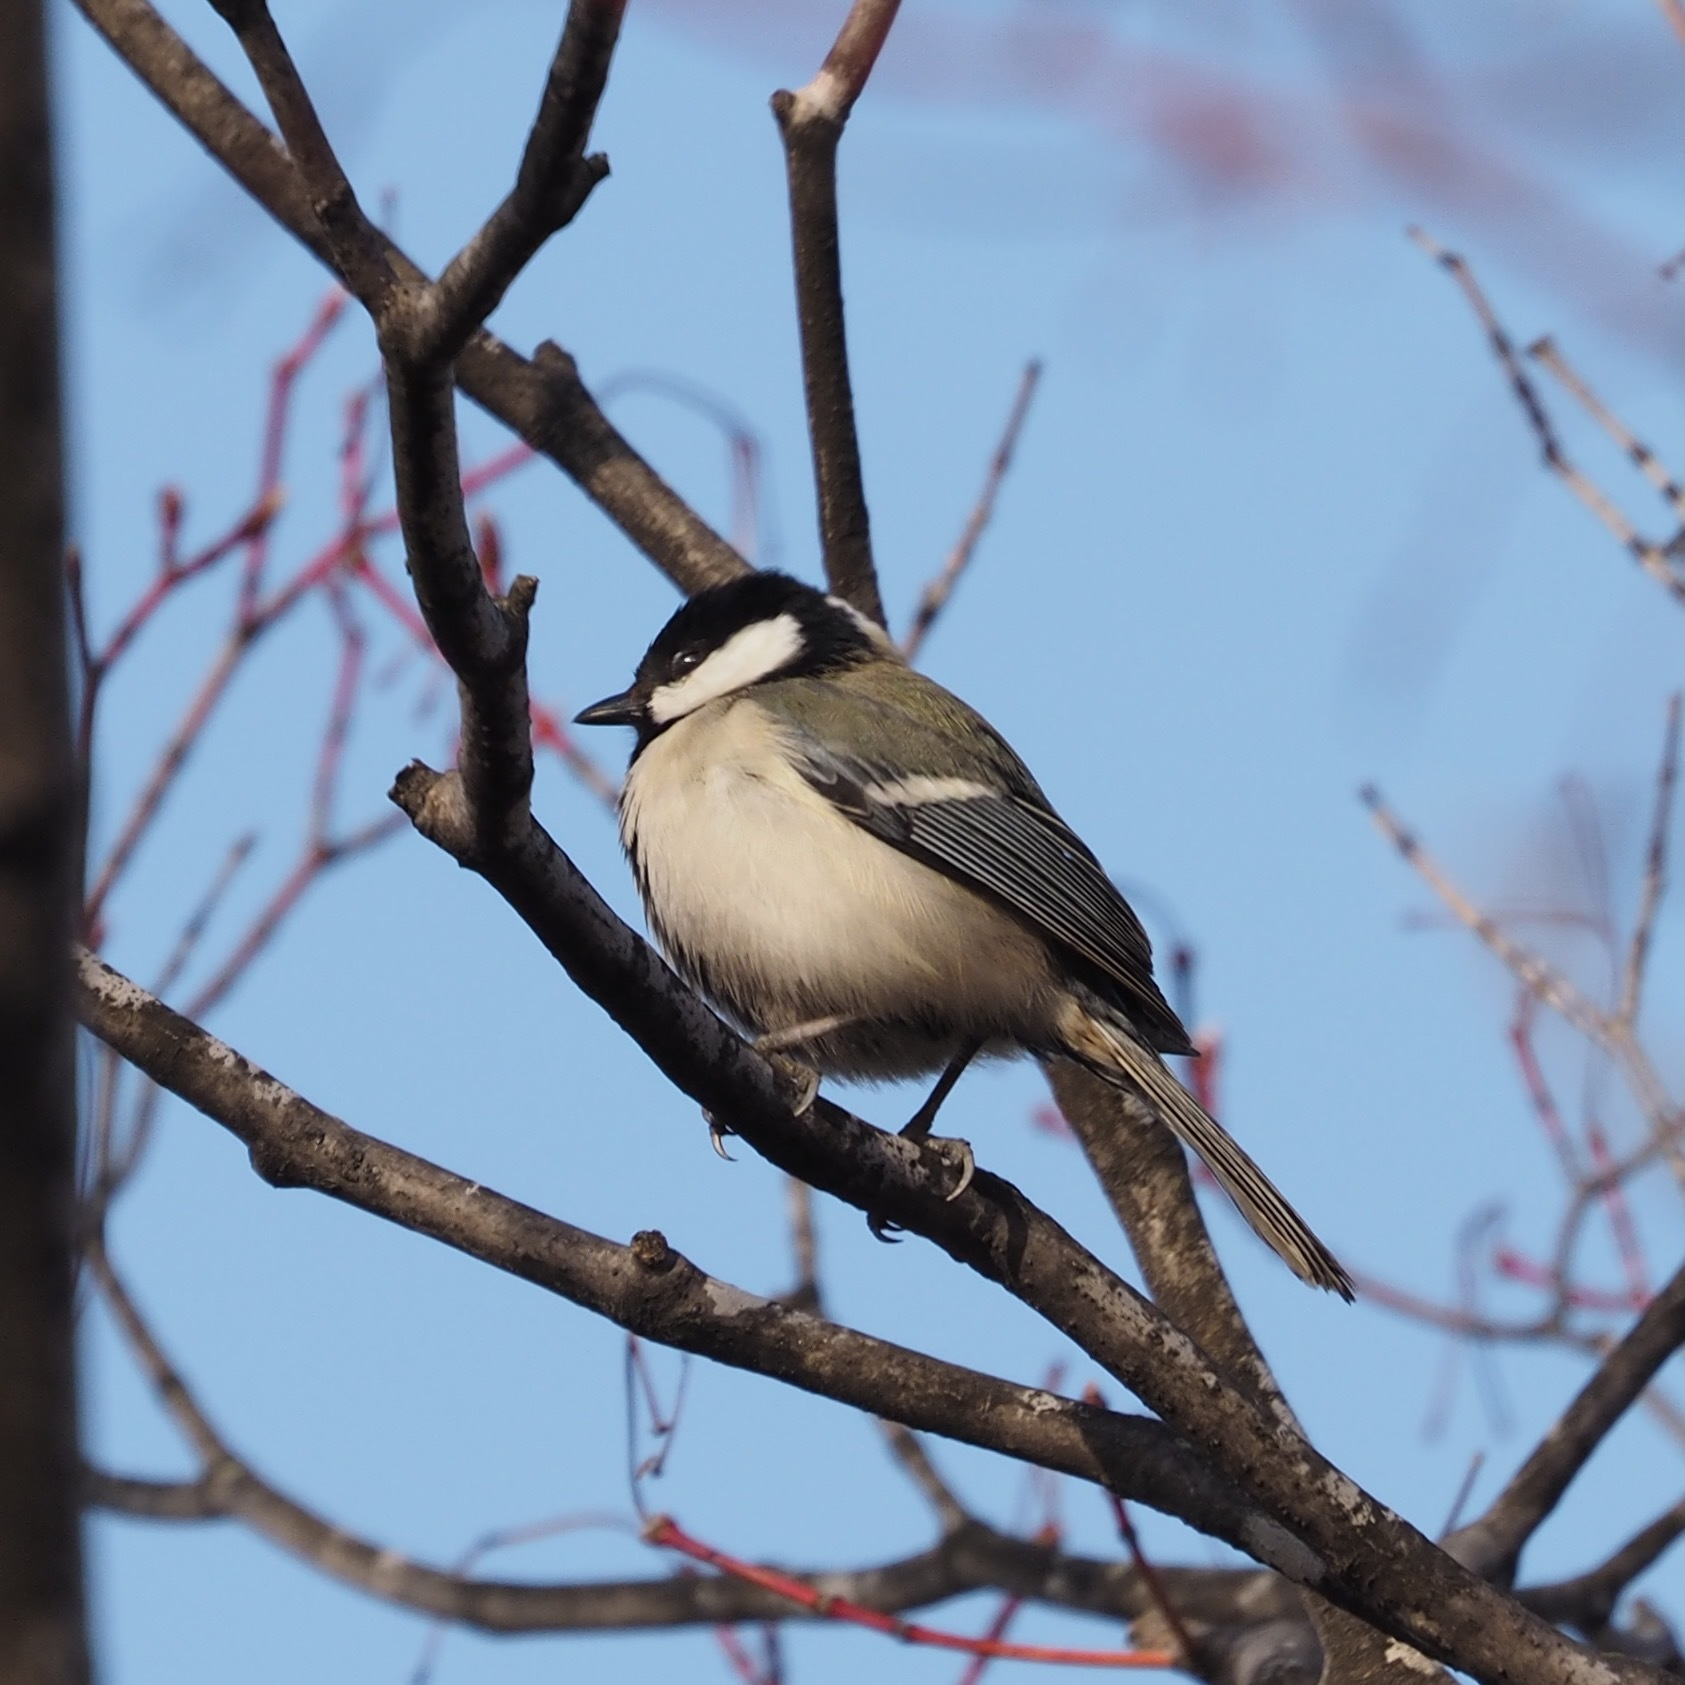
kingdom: Animalia
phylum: Chordata
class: Aves
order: Passeriformes
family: Paridae
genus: Parus
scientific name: Parus minor
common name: Japanese tit
